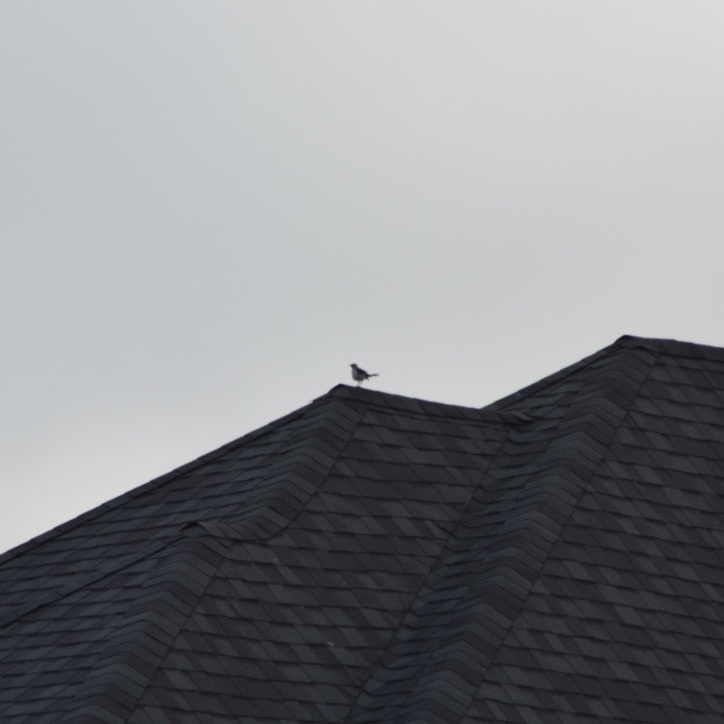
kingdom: Animalia
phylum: Chordata
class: Aves
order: Passeriformes
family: Mimidae
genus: Mimus
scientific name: Mimus polyglottos
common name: Northern mockingbird
